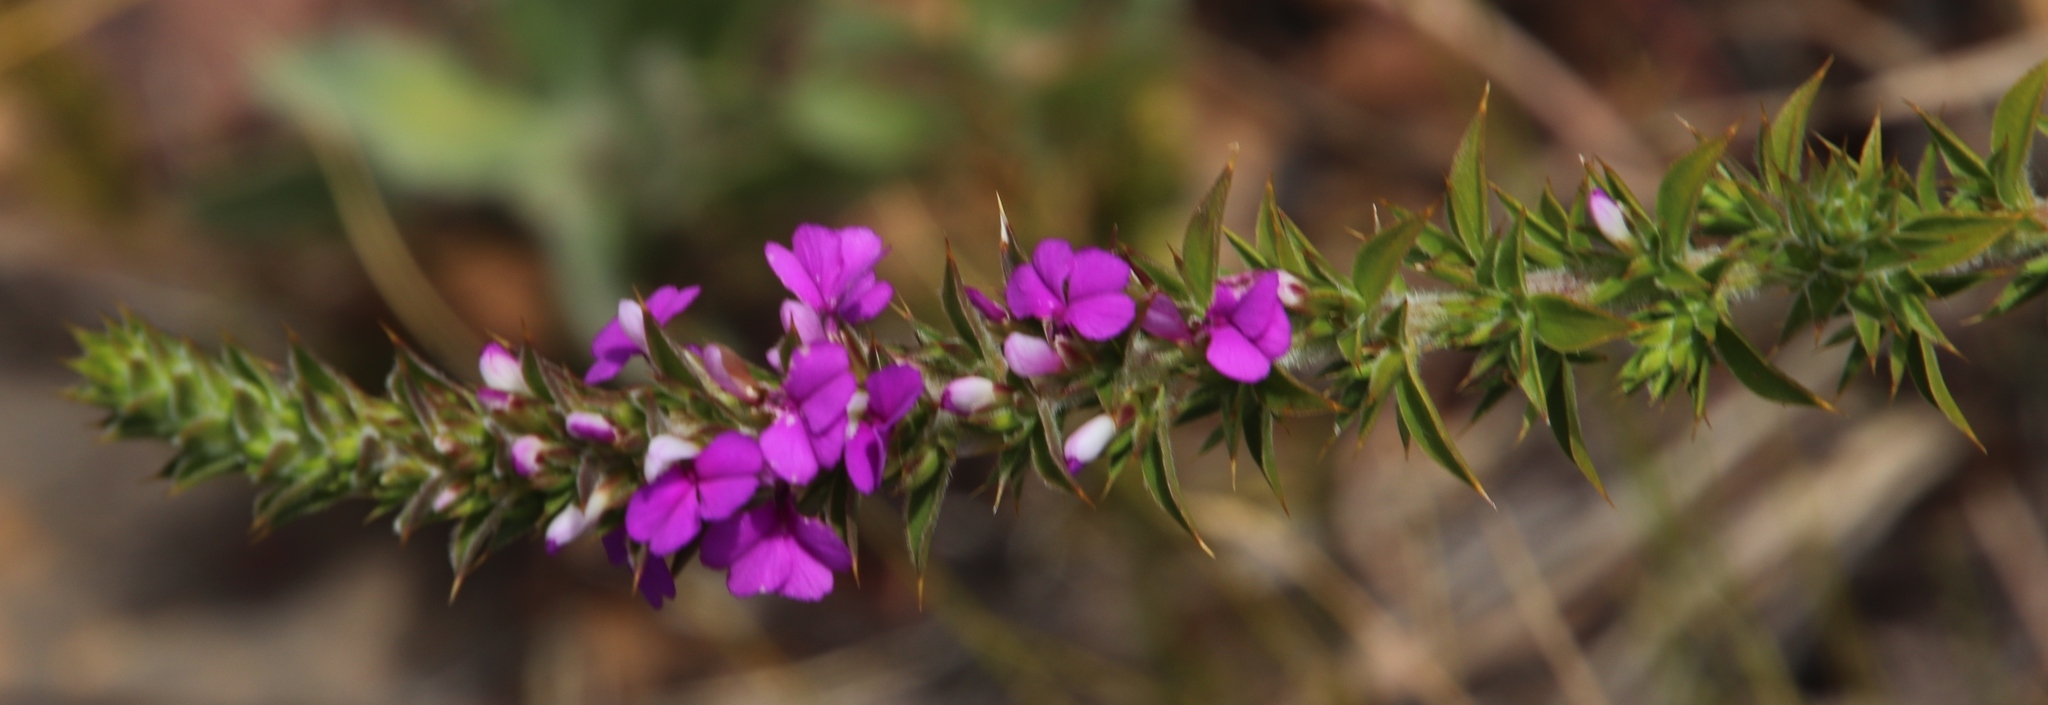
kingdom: Plantae
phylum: Tracheophyta
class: Magnoliopsida
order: Fabales
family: Polygalaceae
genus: Muraltia
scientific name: Muraltia heisteria
